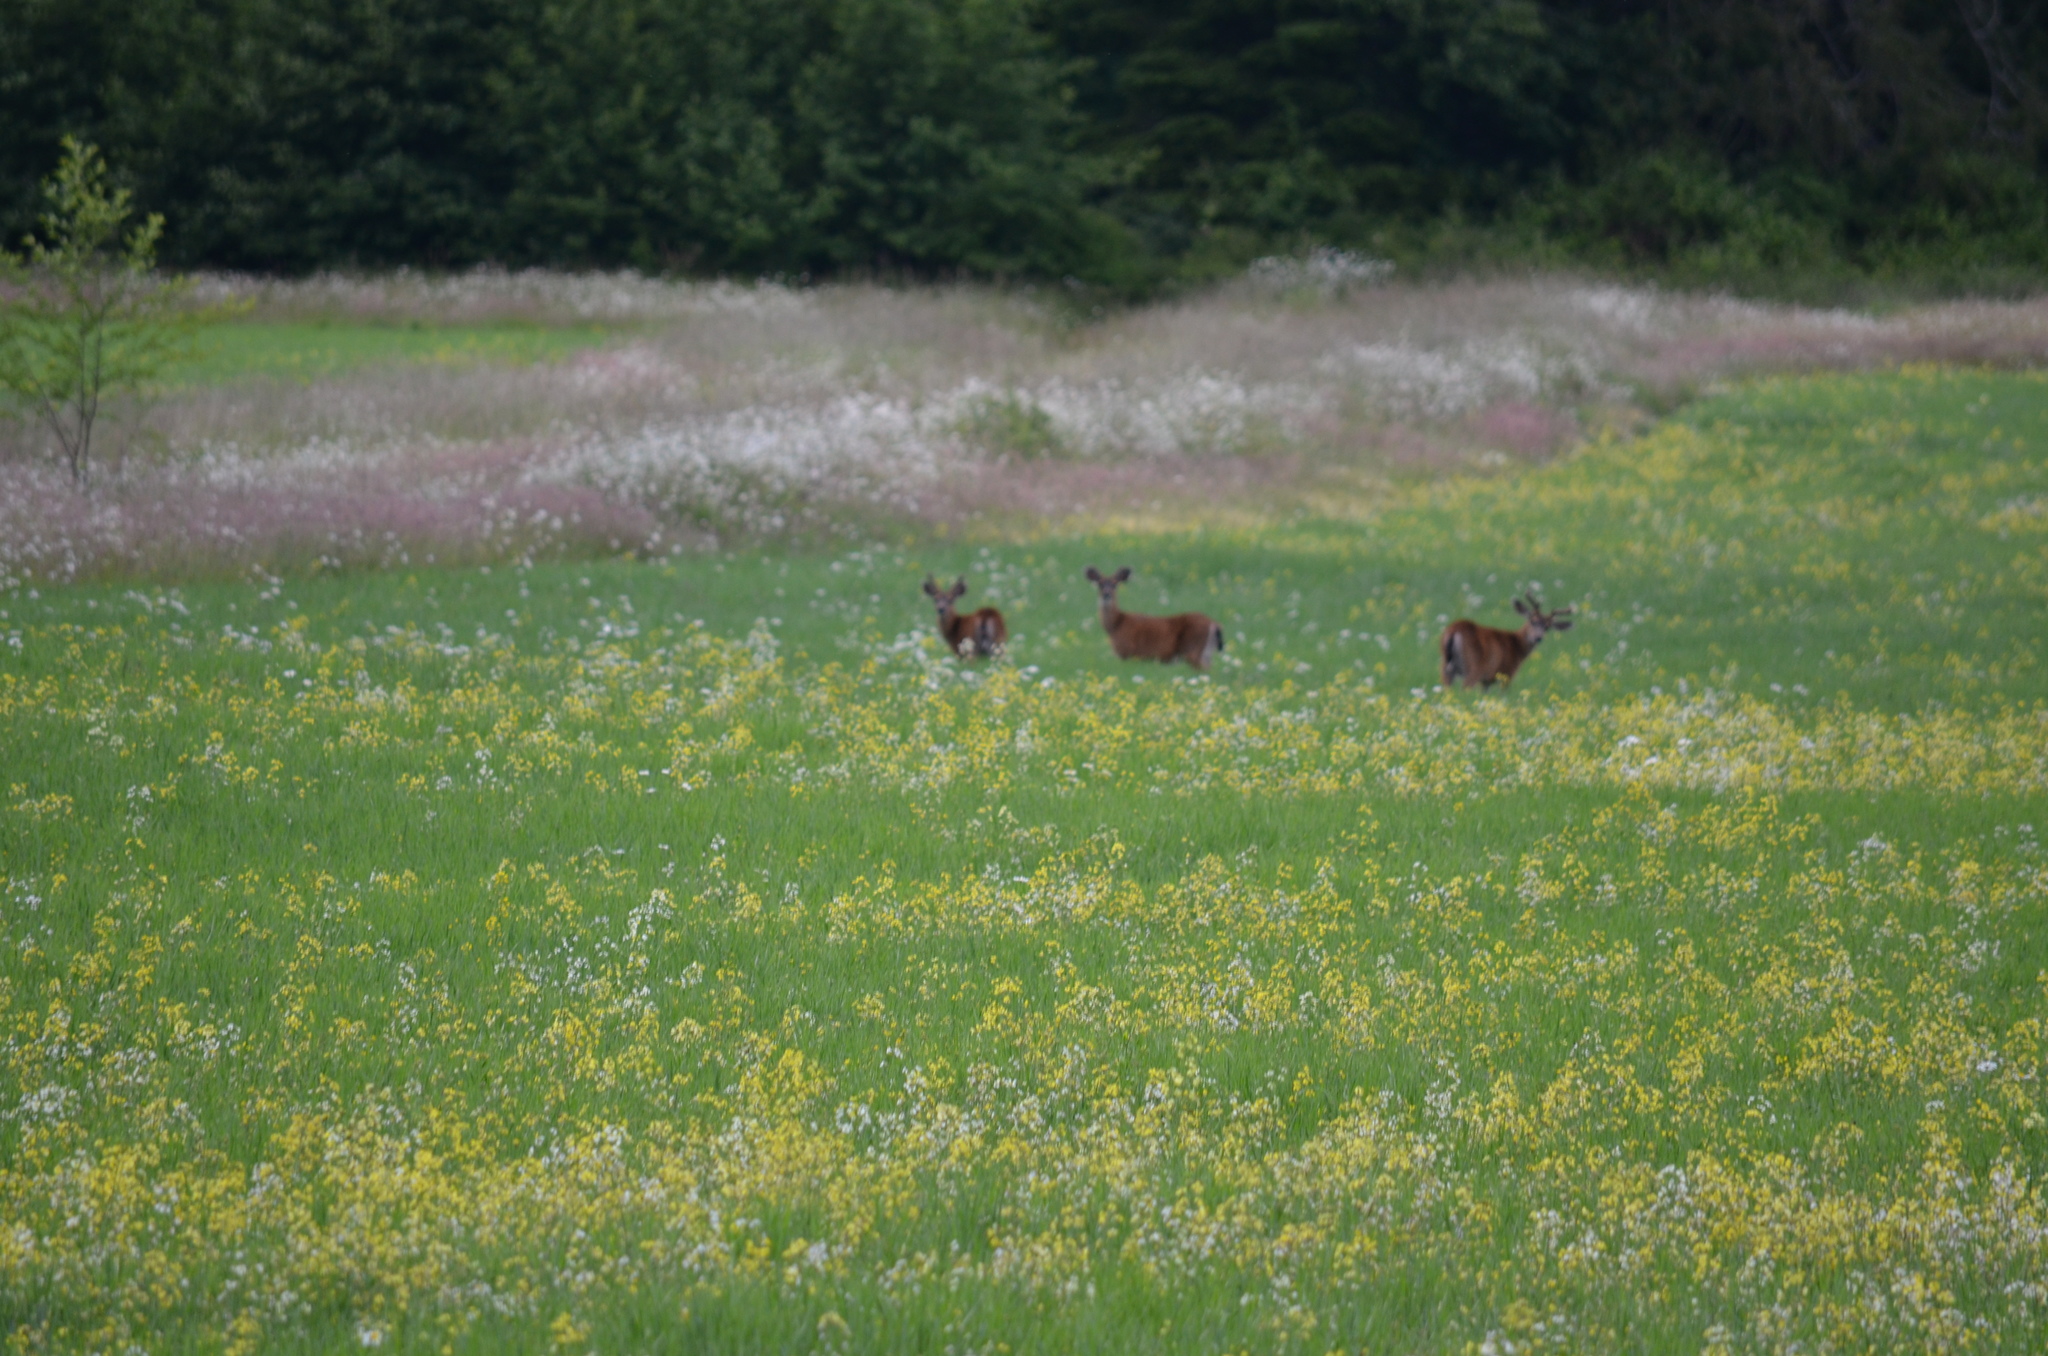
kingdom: Animalia
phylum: Chordata
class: Mammalia
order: Artiodactyla
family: Cervidae
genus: Odocoileus
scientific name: Odocoileus hemionus
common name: Mule deer
